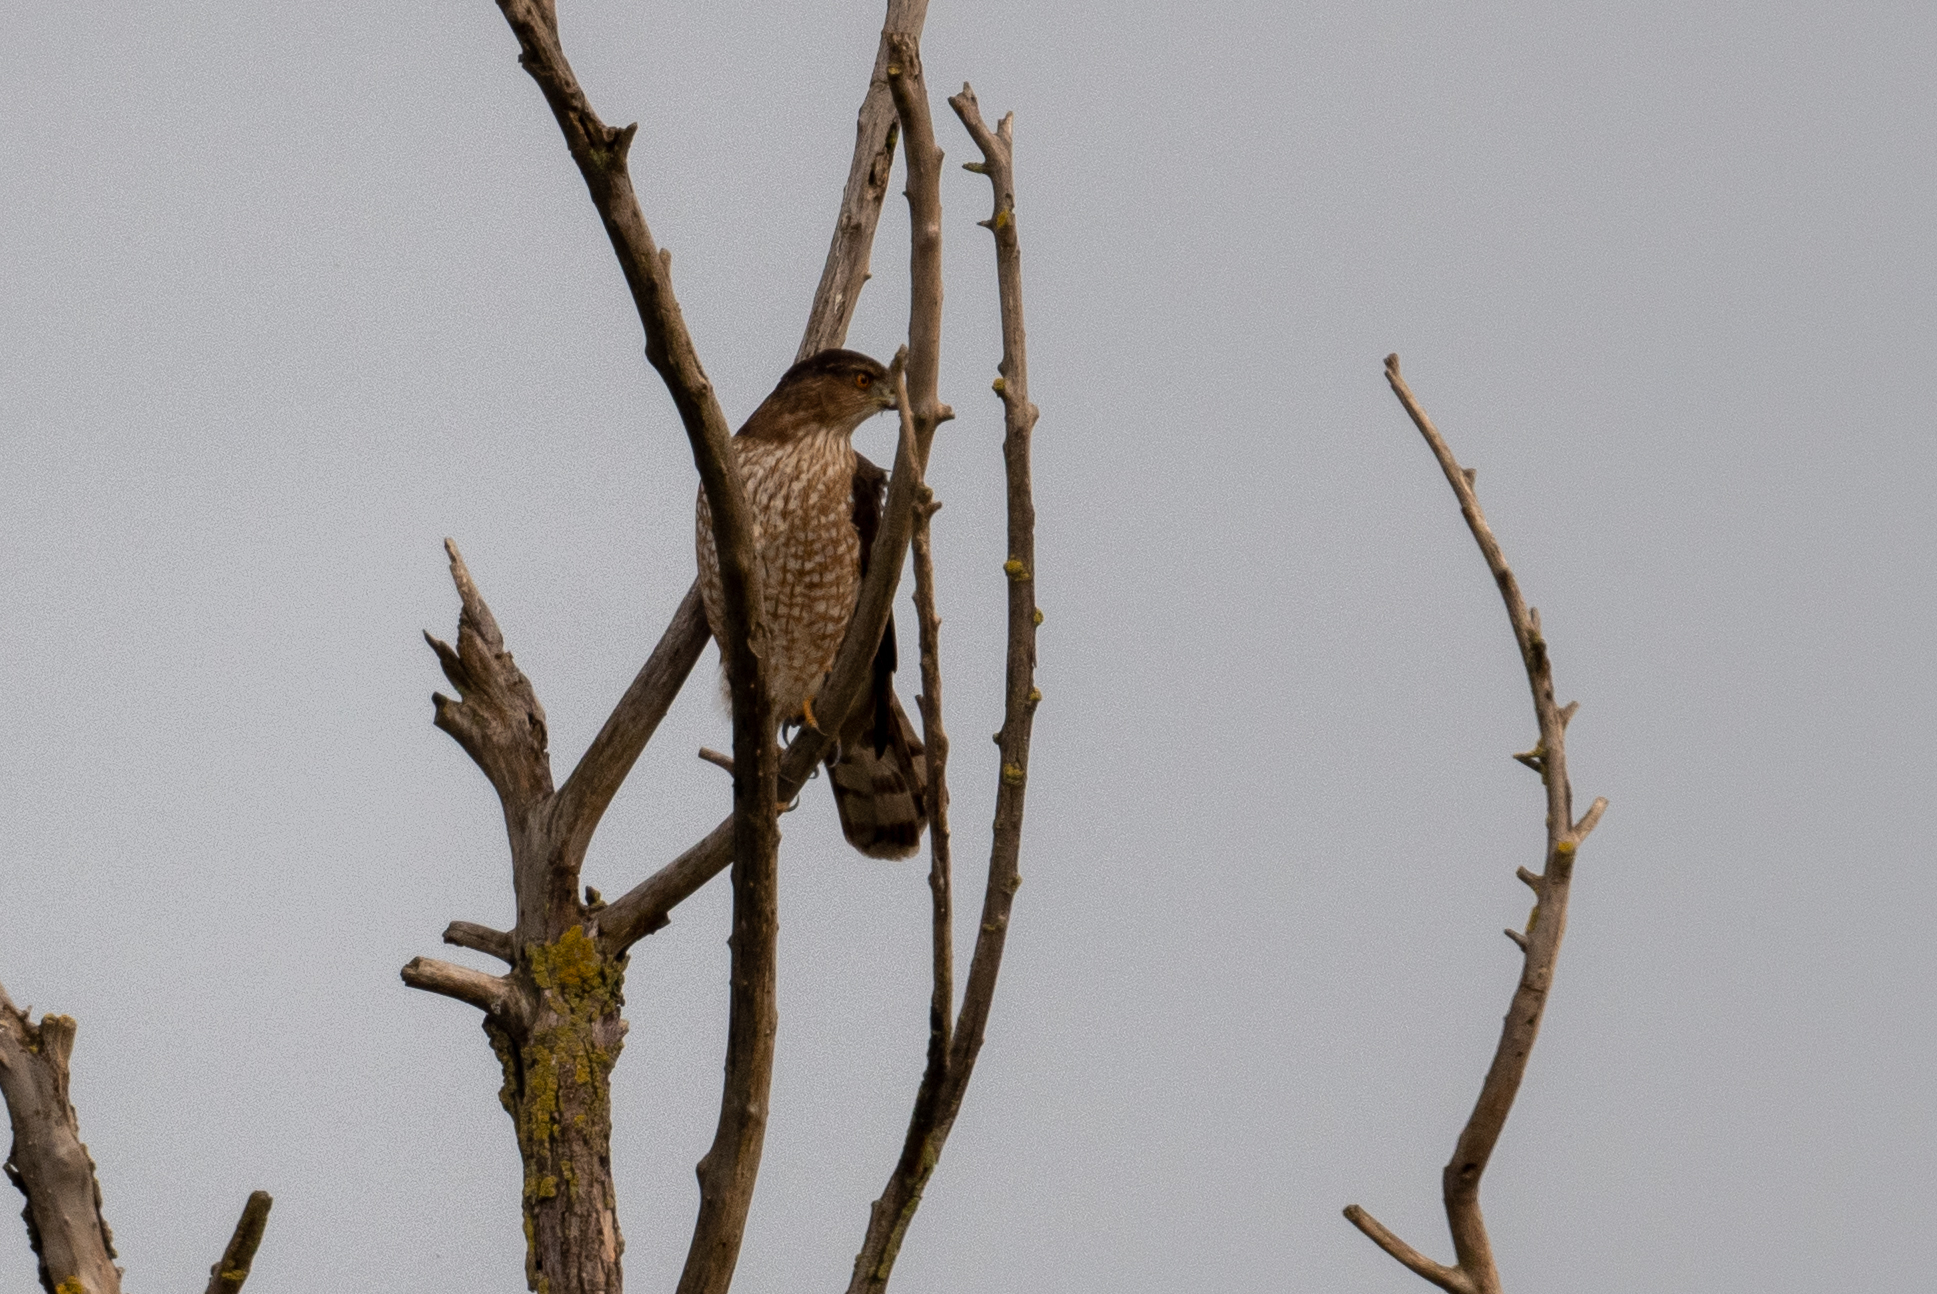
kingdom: Animalia
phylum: Chordata
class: Aves
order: Accipitriformes
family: Accipitridae
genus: Accipiter
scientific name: Accipiter cooperii
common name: Cooper's hawk
